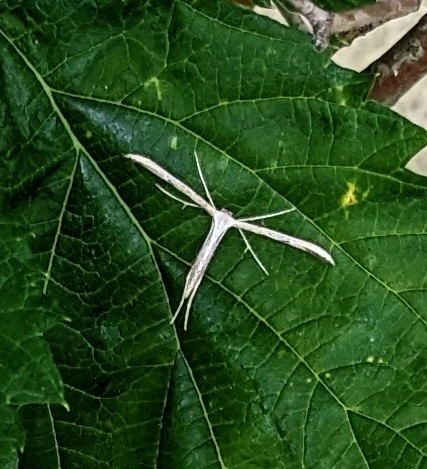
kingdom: Animalia
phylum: Arthropoda
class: Insecta
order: Lepidoptera
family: Pterophoridae
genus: Emmelina
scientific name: Emmelina monodactyla
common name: Common plume
